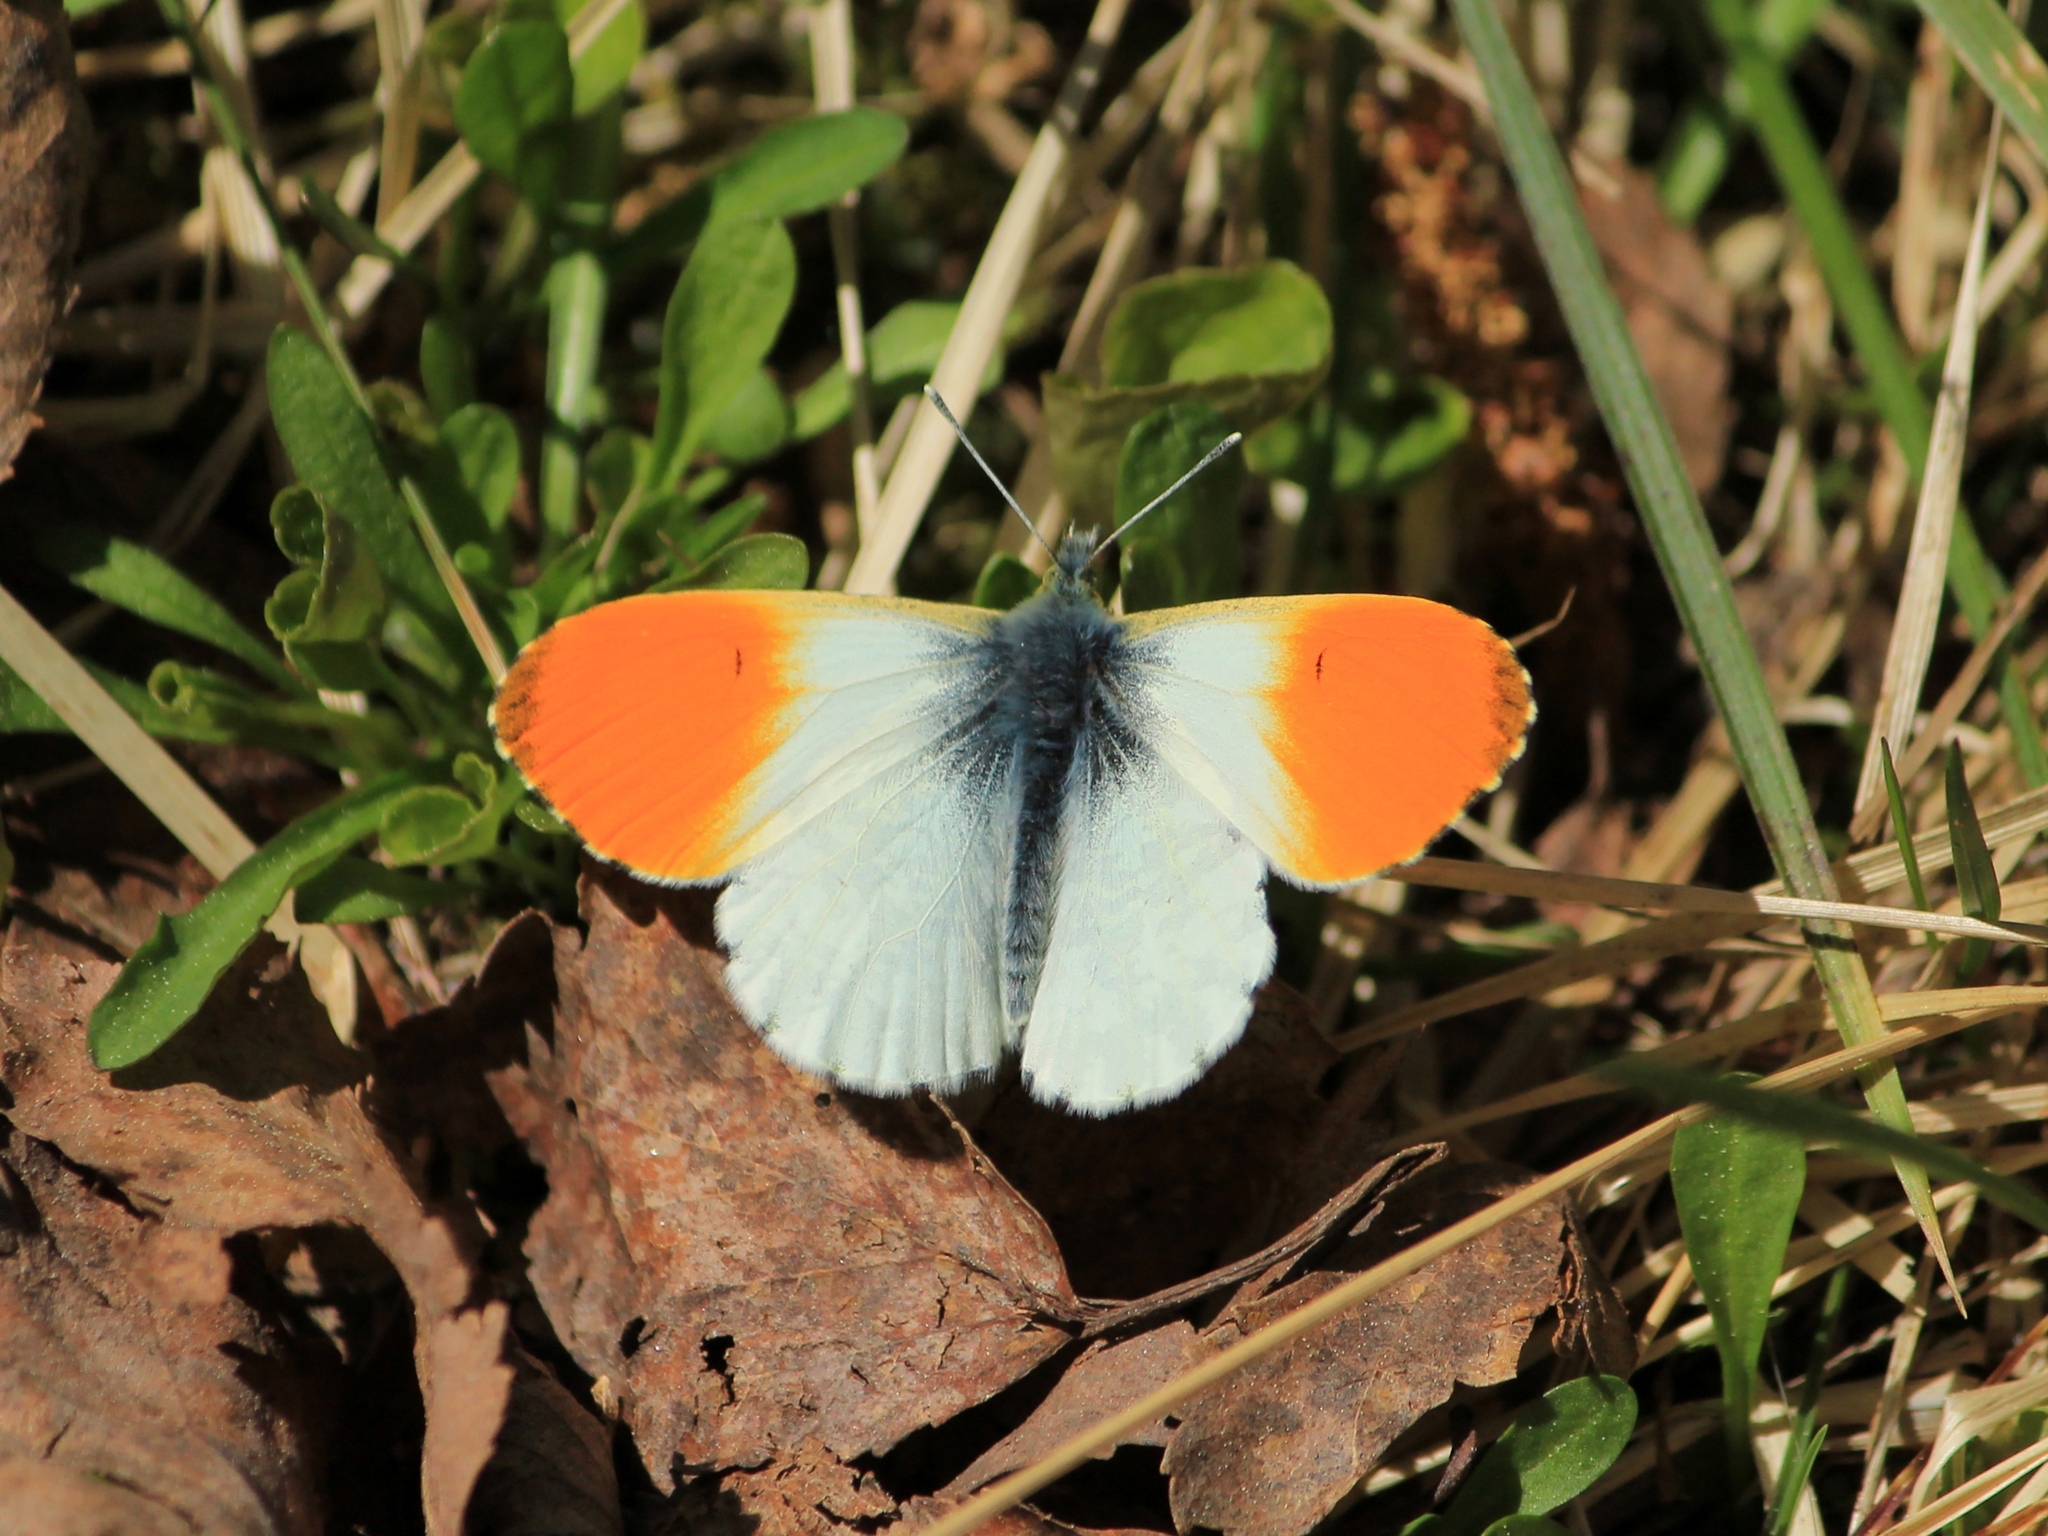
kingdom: Animalia
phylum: Arthropoda
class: Insecta
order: Lepidoptera
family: Pieridae
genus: Anthocharis
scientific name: Anthocharis cardamines
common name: Orange-tip
